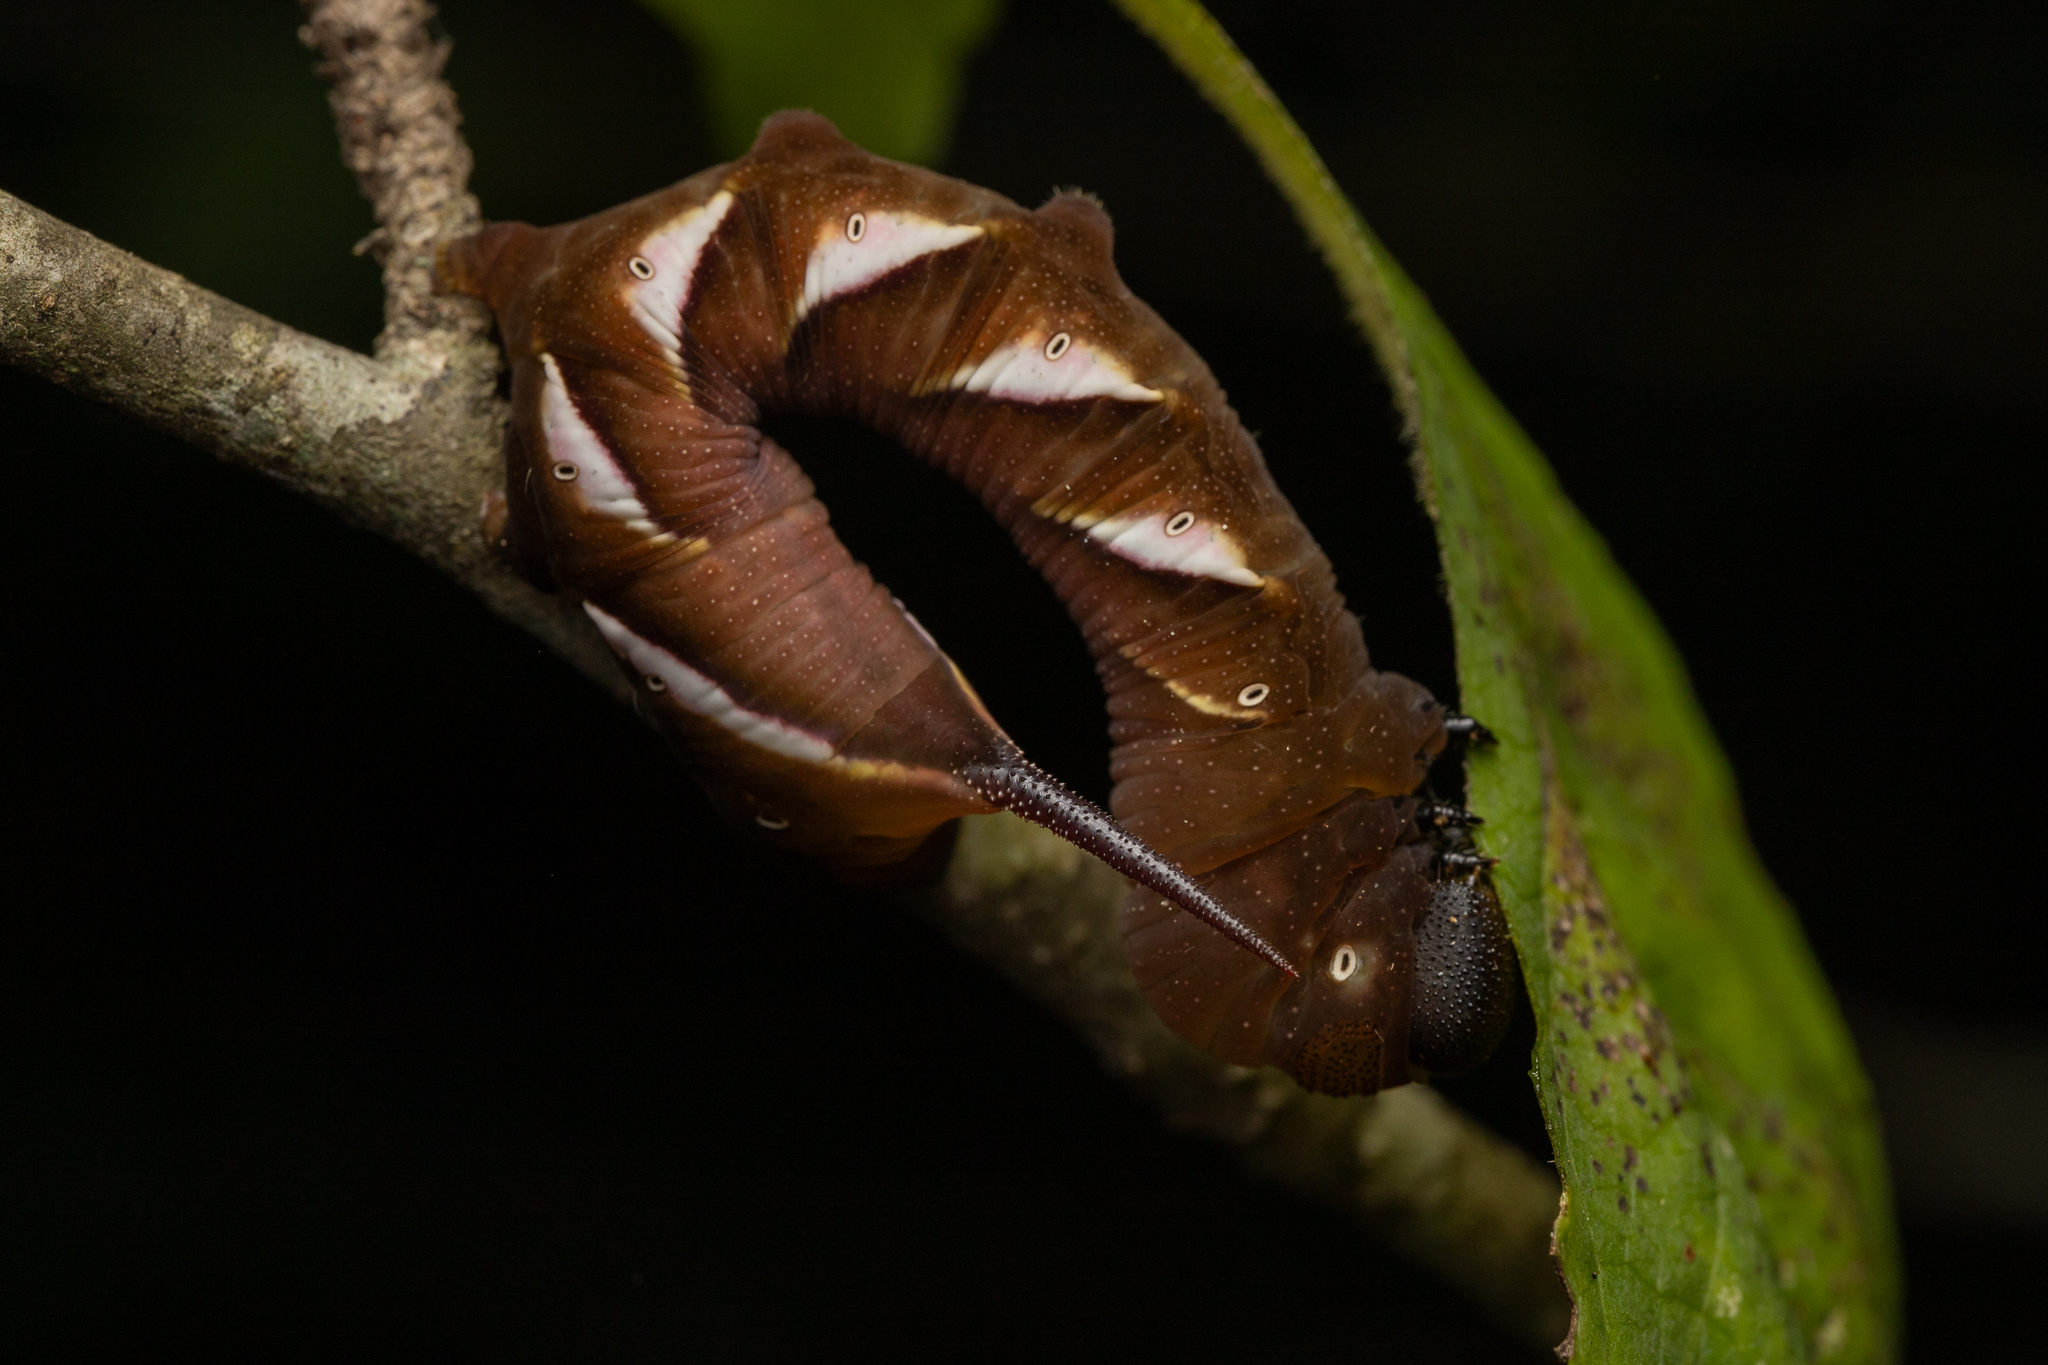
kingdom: Animalia
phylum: Arthropoda
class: Insecta
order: Lepidoptera
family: Sphingidae
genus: Dolba
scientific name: Dolba hyloeus
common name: Pawpaw sphinx
